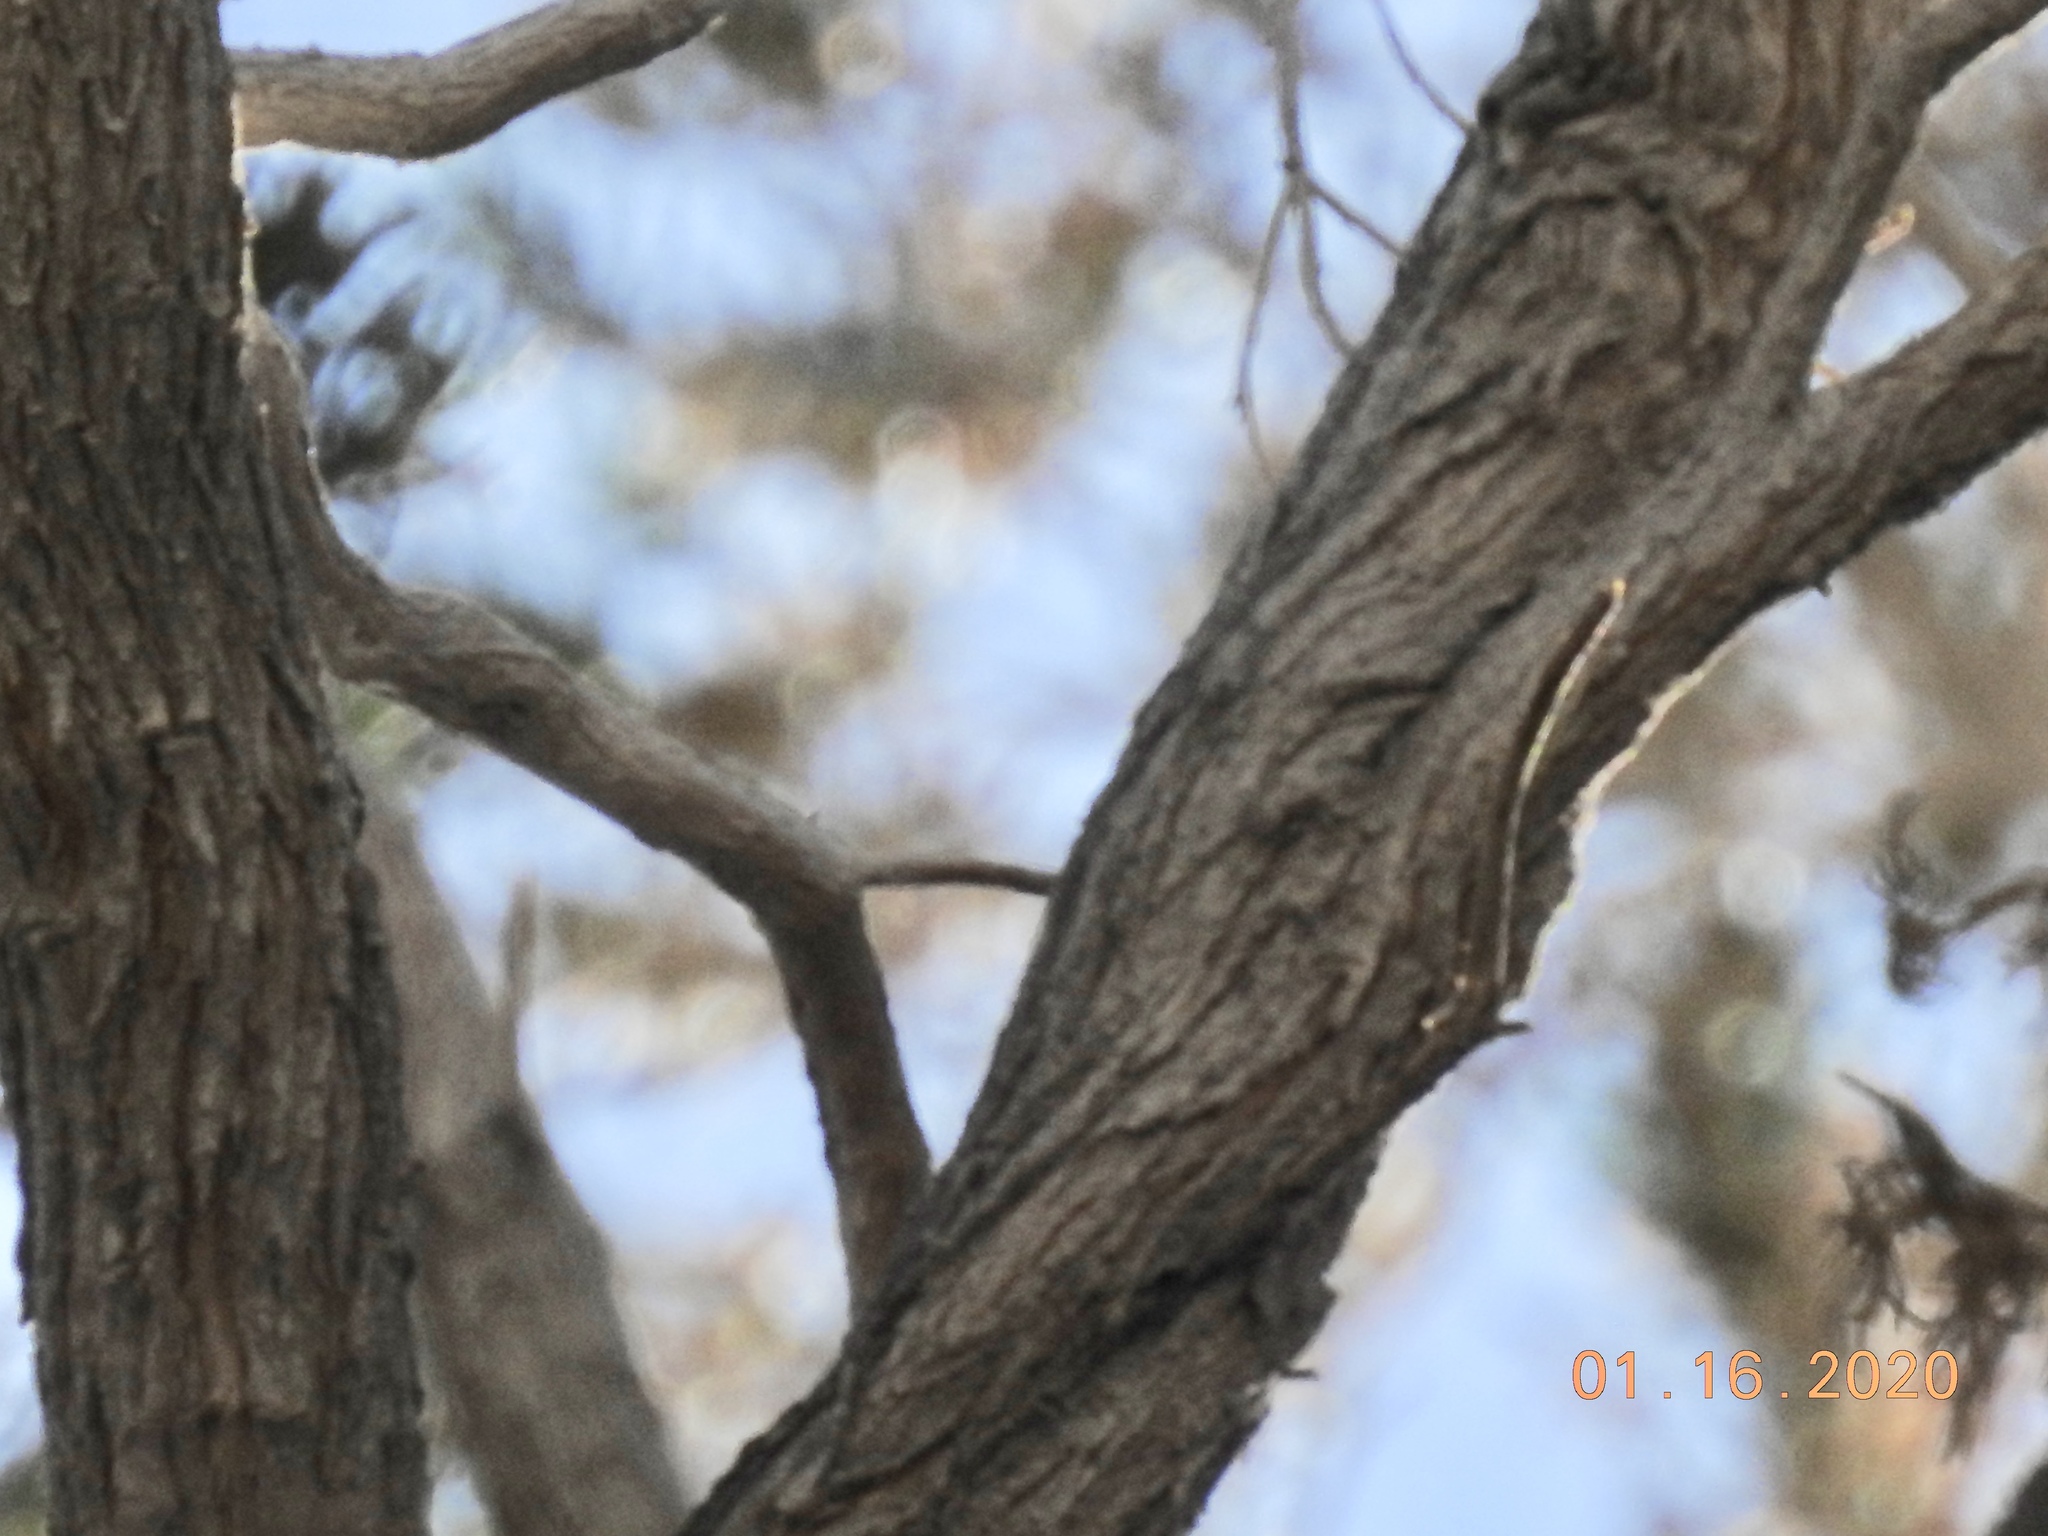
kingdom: Plantae
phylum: Tracheophyta
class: Magnoliopsida
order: Asterales
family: Asteraceae
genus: Peucephyllum
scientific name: Peucephyllum schottii
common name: Pygmy-cedar
